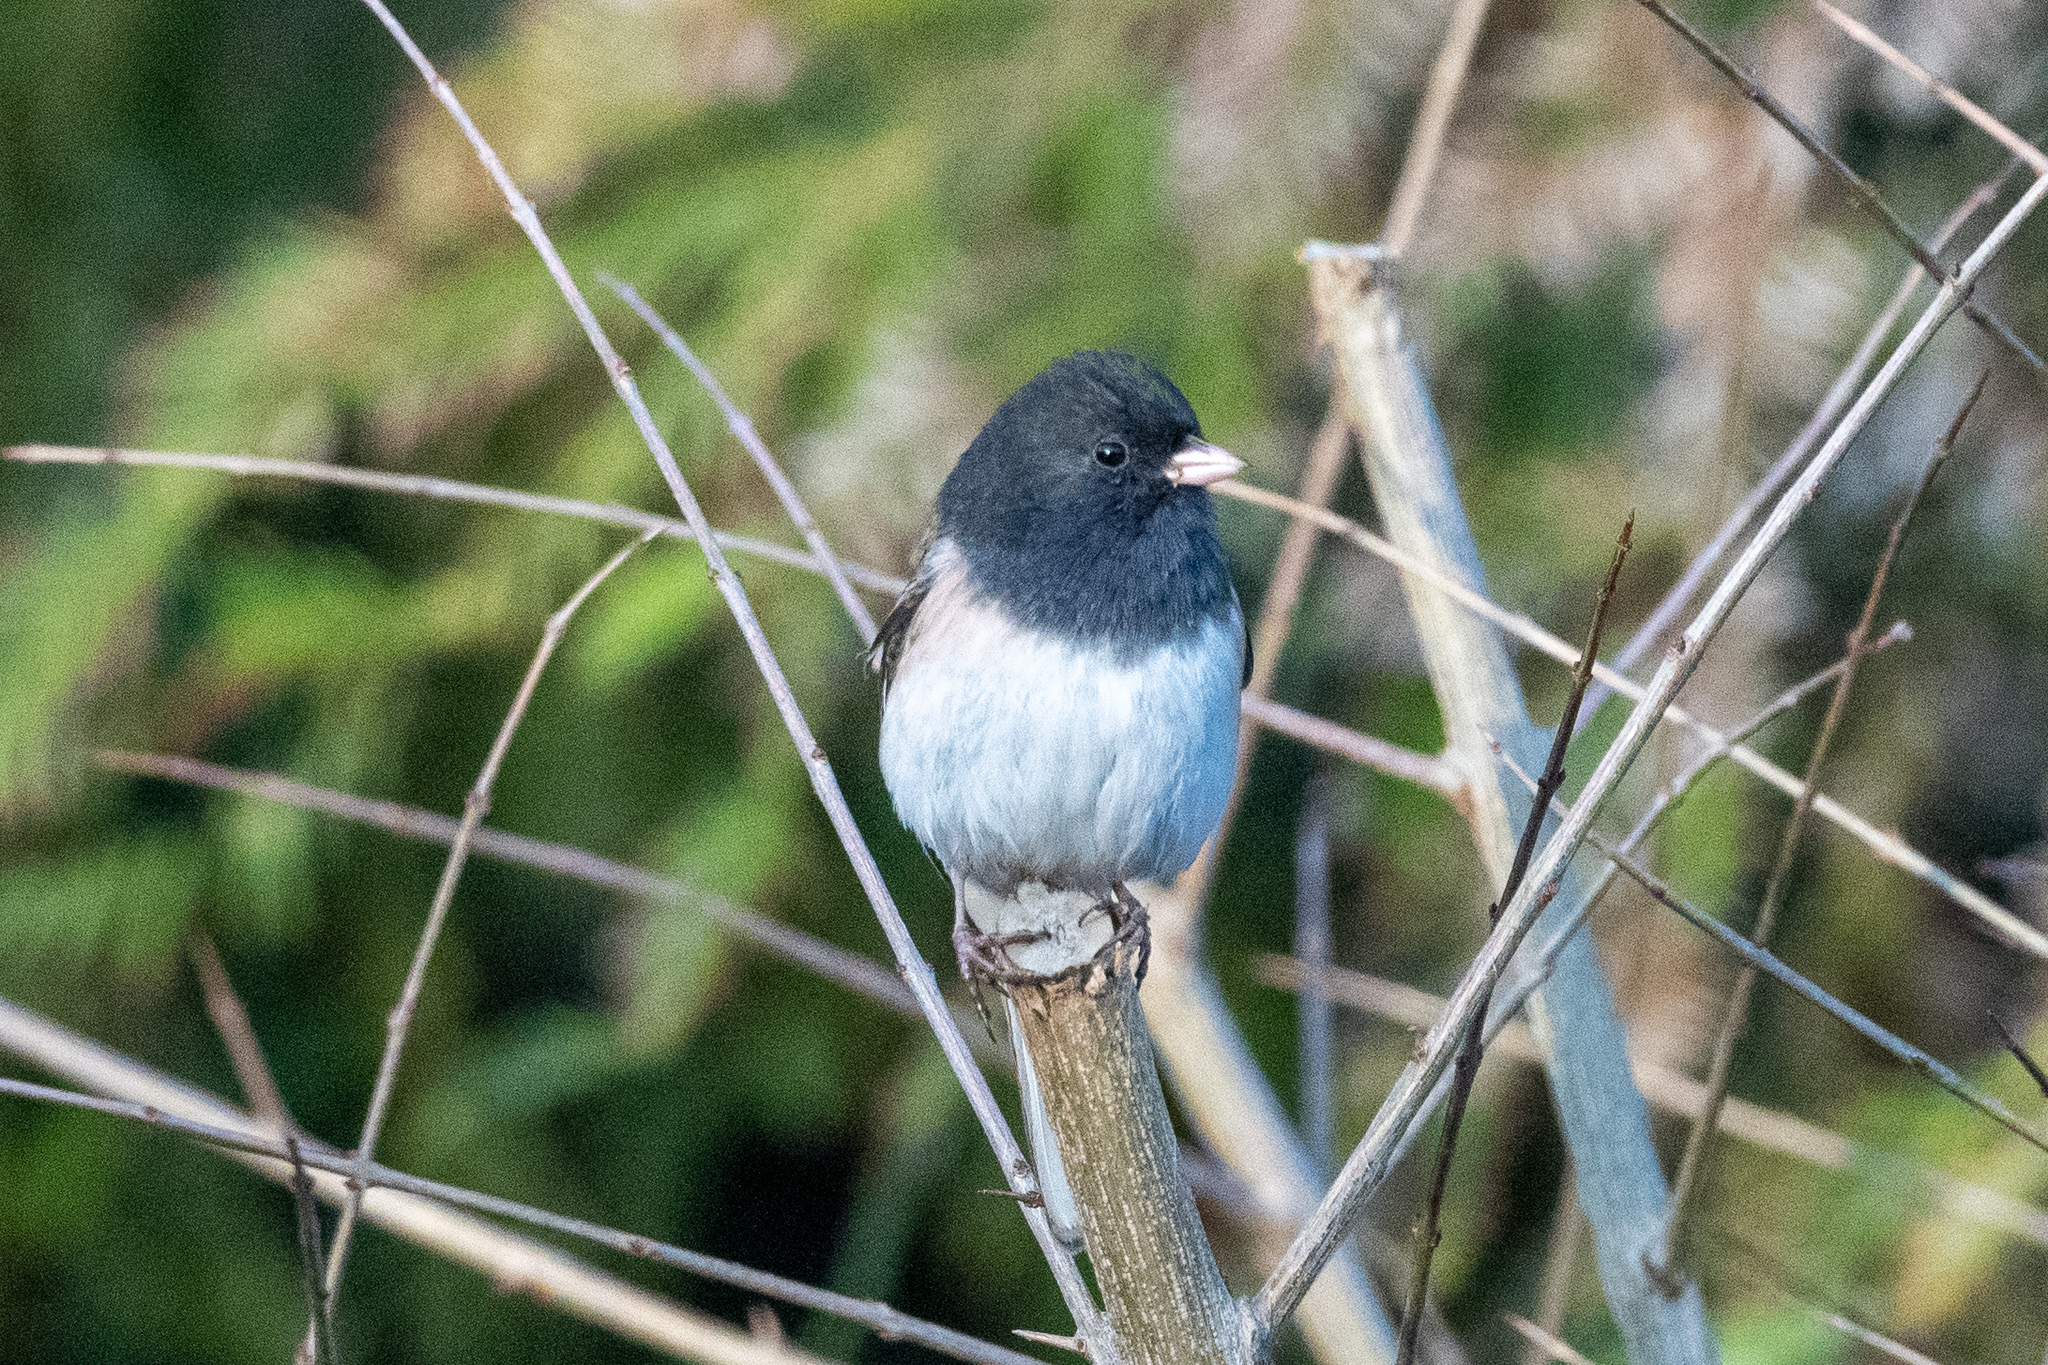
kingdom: Animalia
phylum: Chordata
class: Aves
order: Passeriformes
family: Passerellidae
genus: Junco
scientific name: Junco hyemalis
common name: Dark-eyed junco
